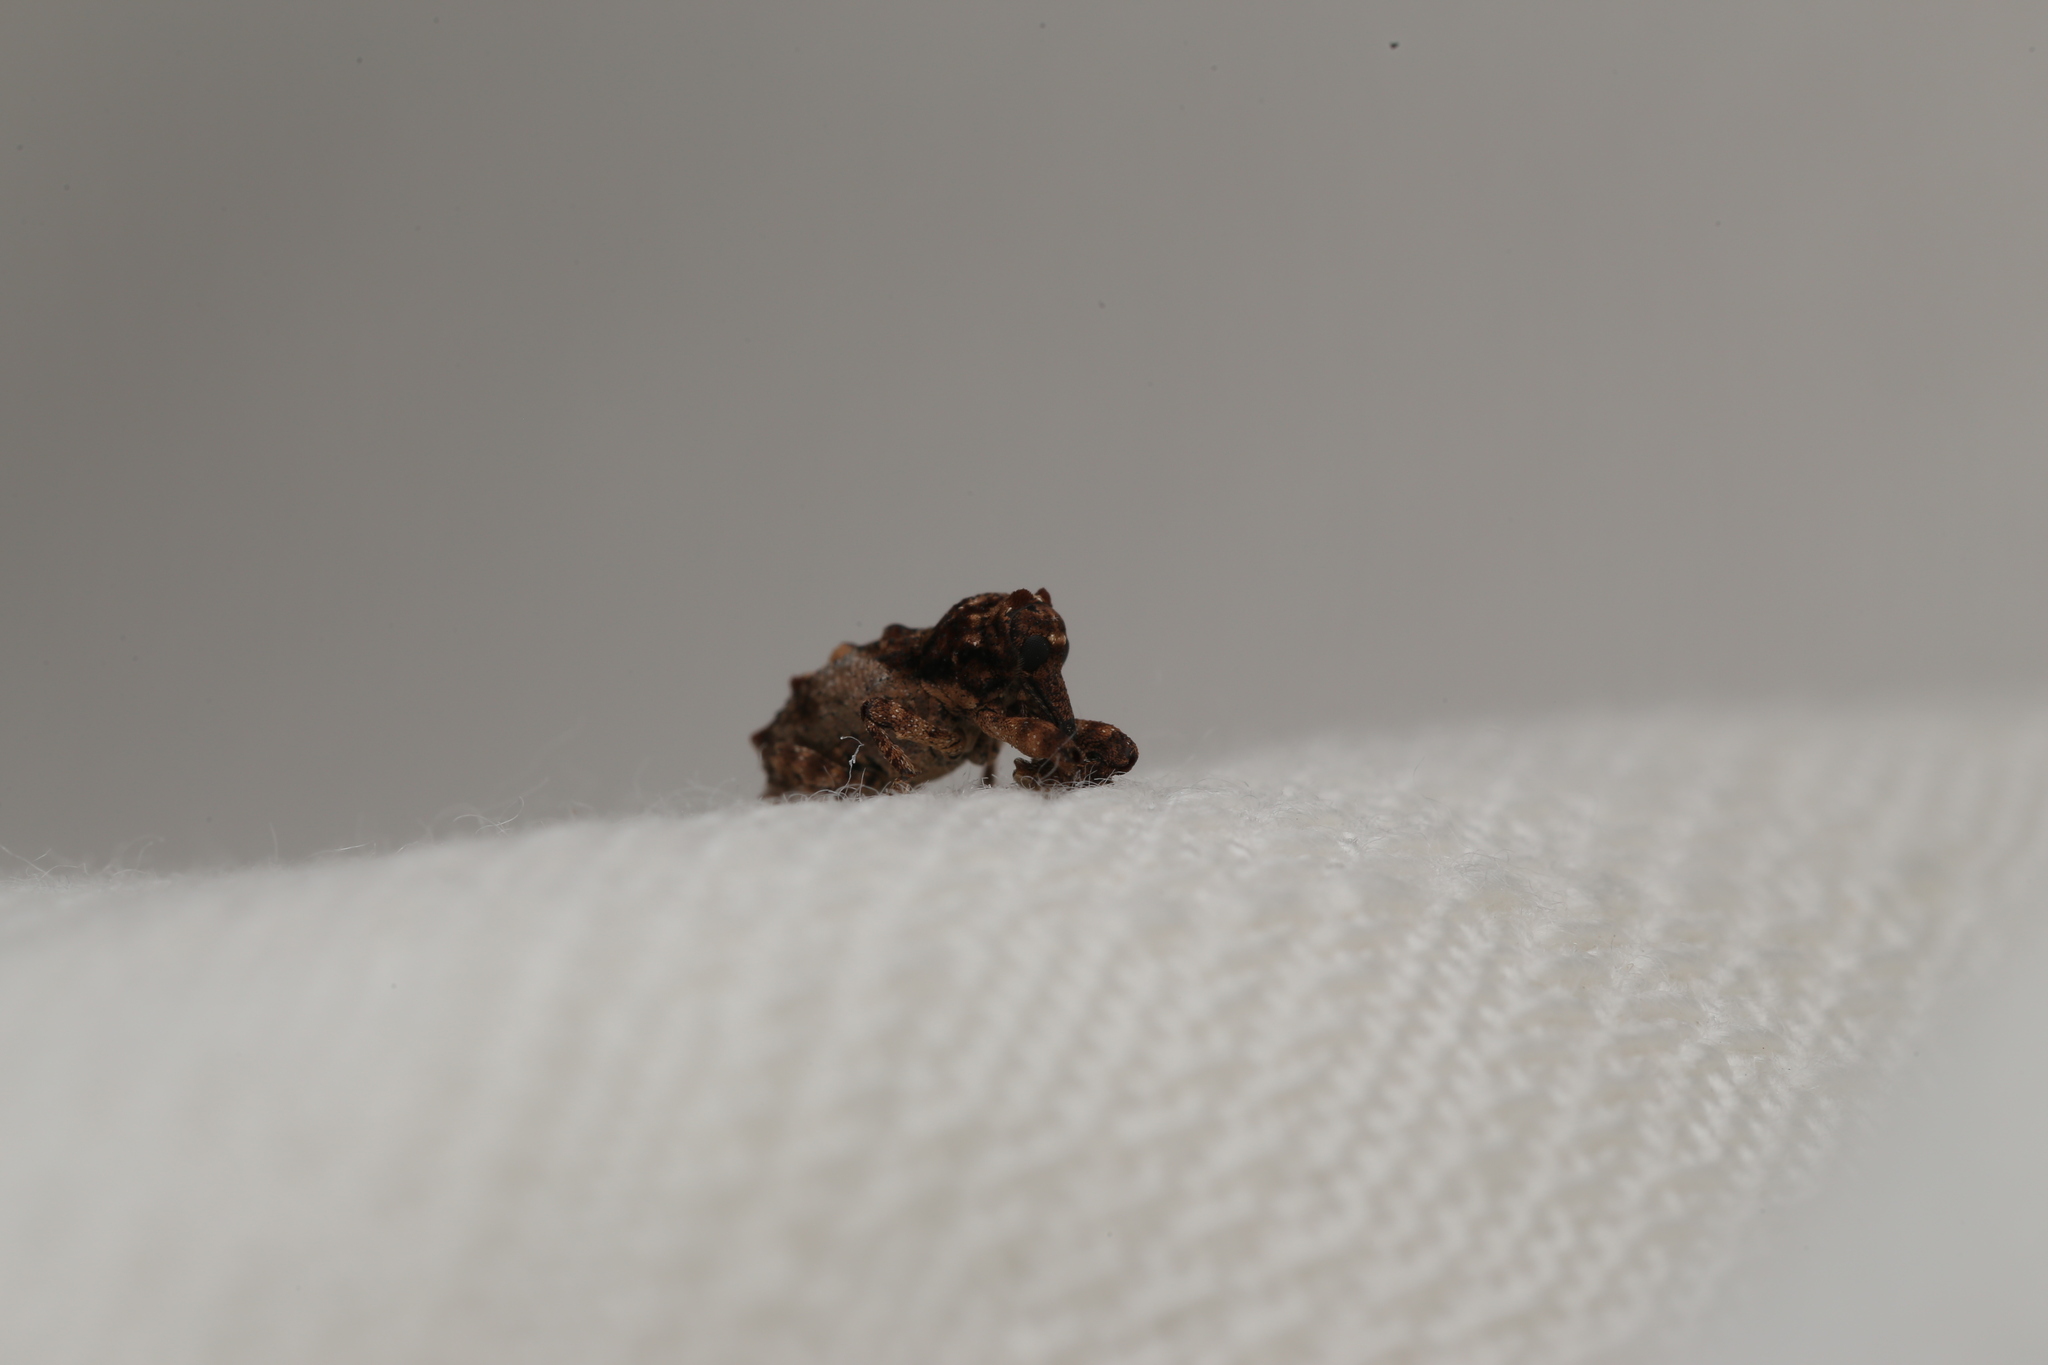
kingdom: Animalia
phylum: Arthropoda
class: Insecta
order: Coleoptera
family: Curculionidae
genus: Orthorhinus
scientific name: Orthorhinus klugii
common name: Vine weevil
